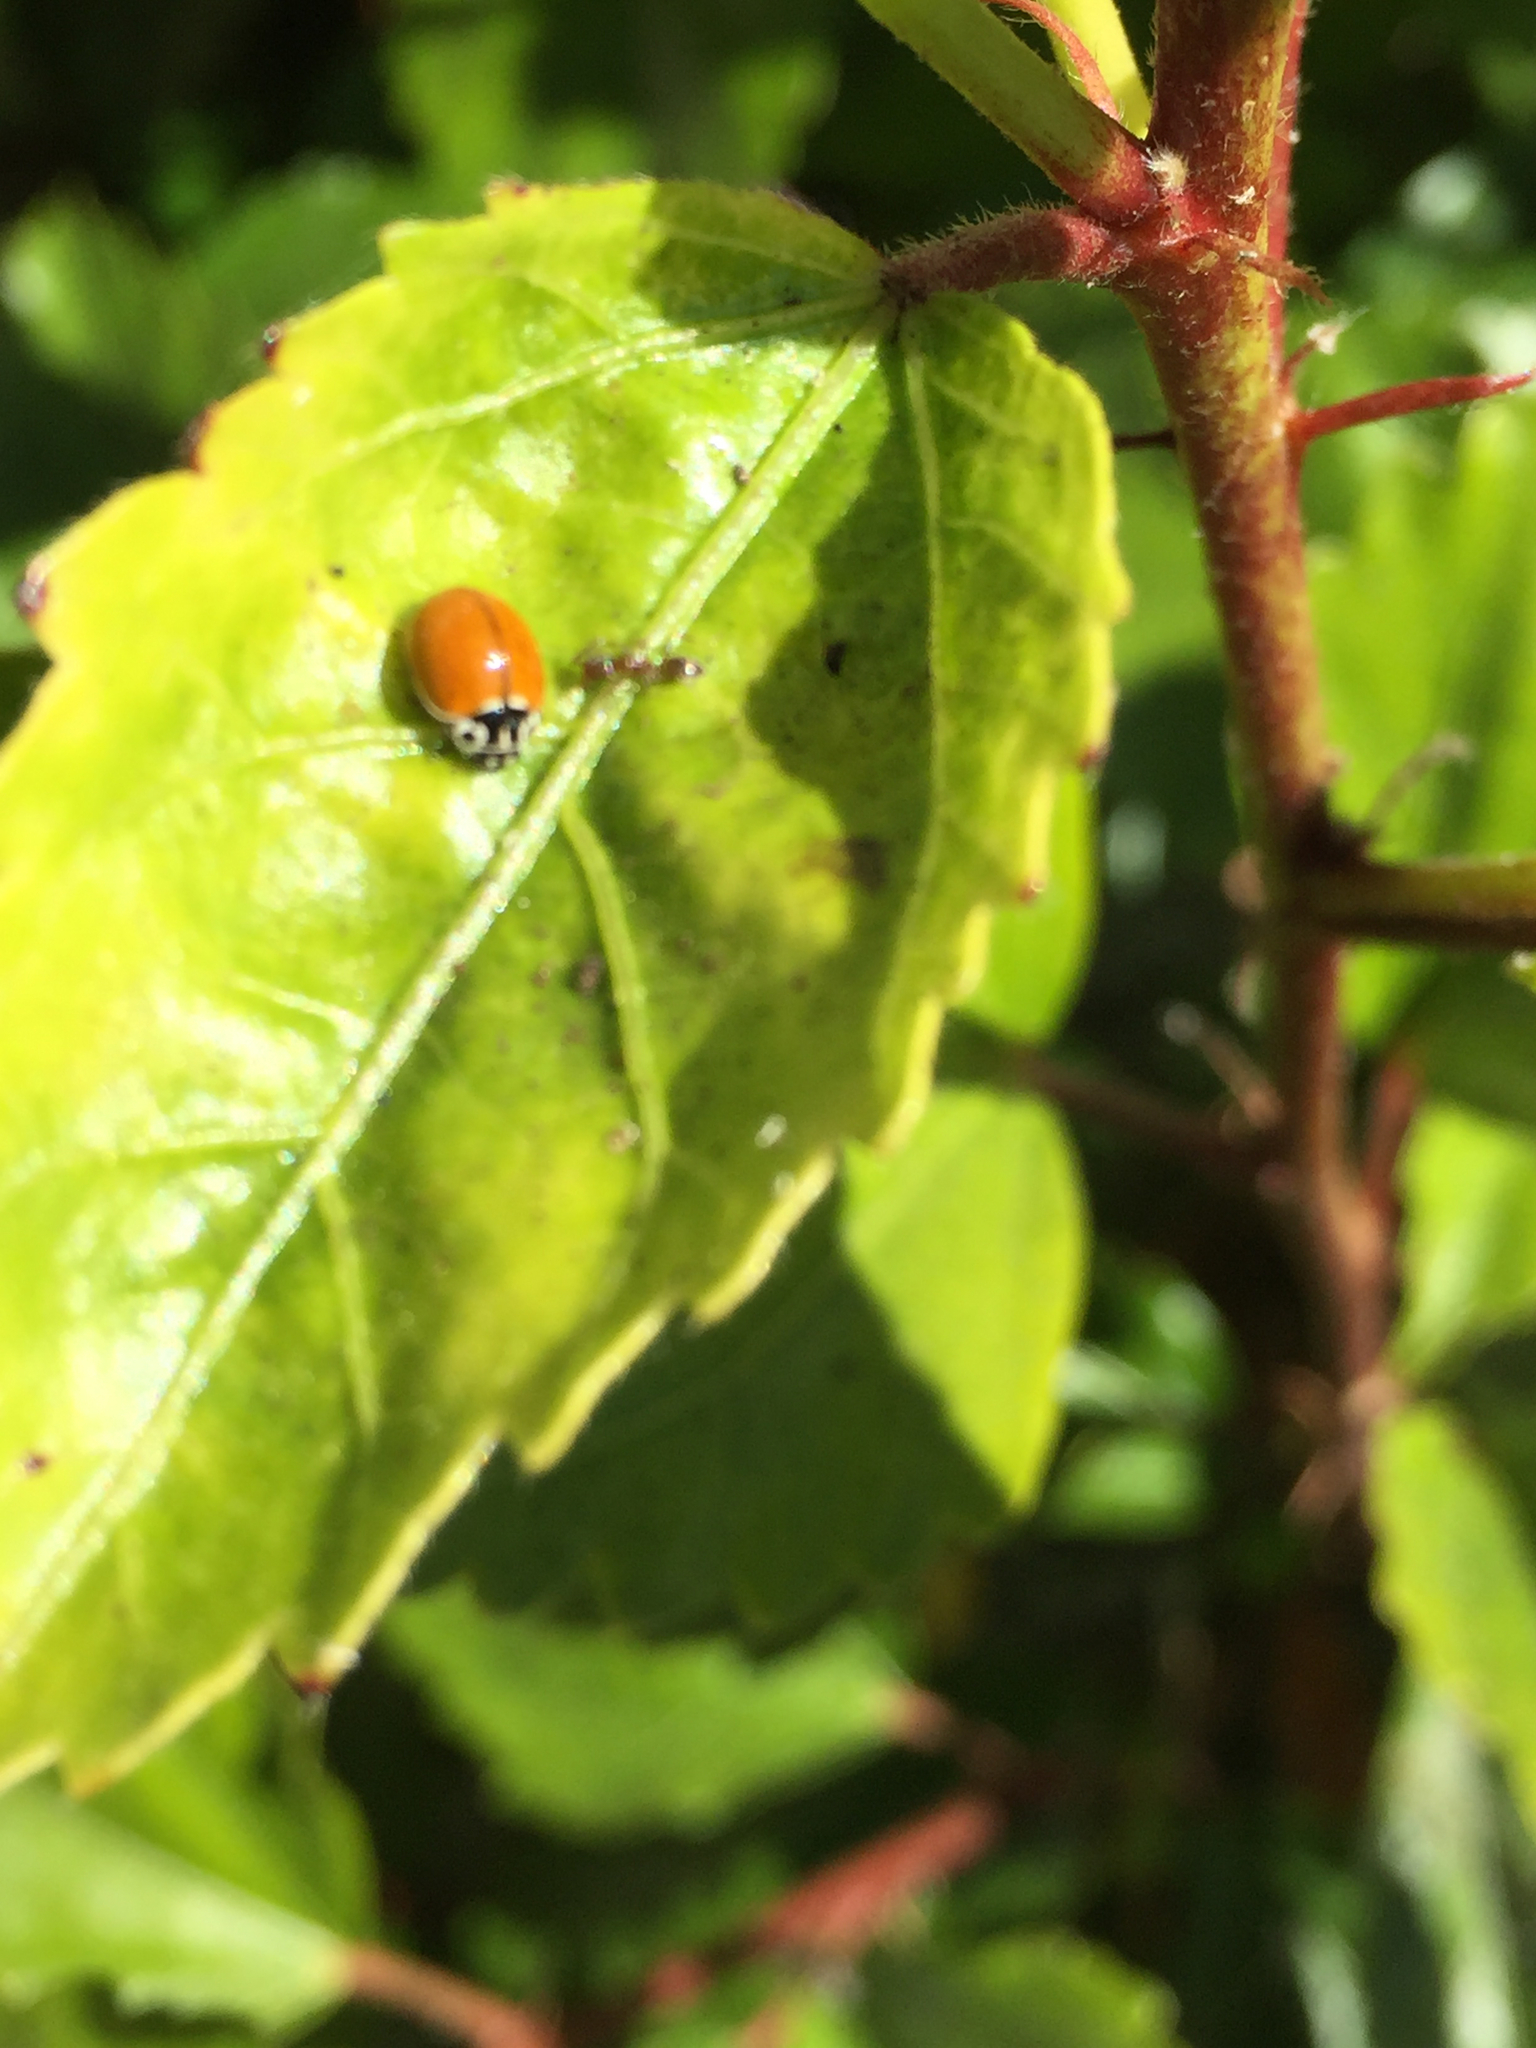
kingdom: Animalia
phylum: Arthropoda
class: Insecta
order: Coleoptera
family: Coccinellidae
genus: Cycloneda
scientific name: Cycloneda polita
